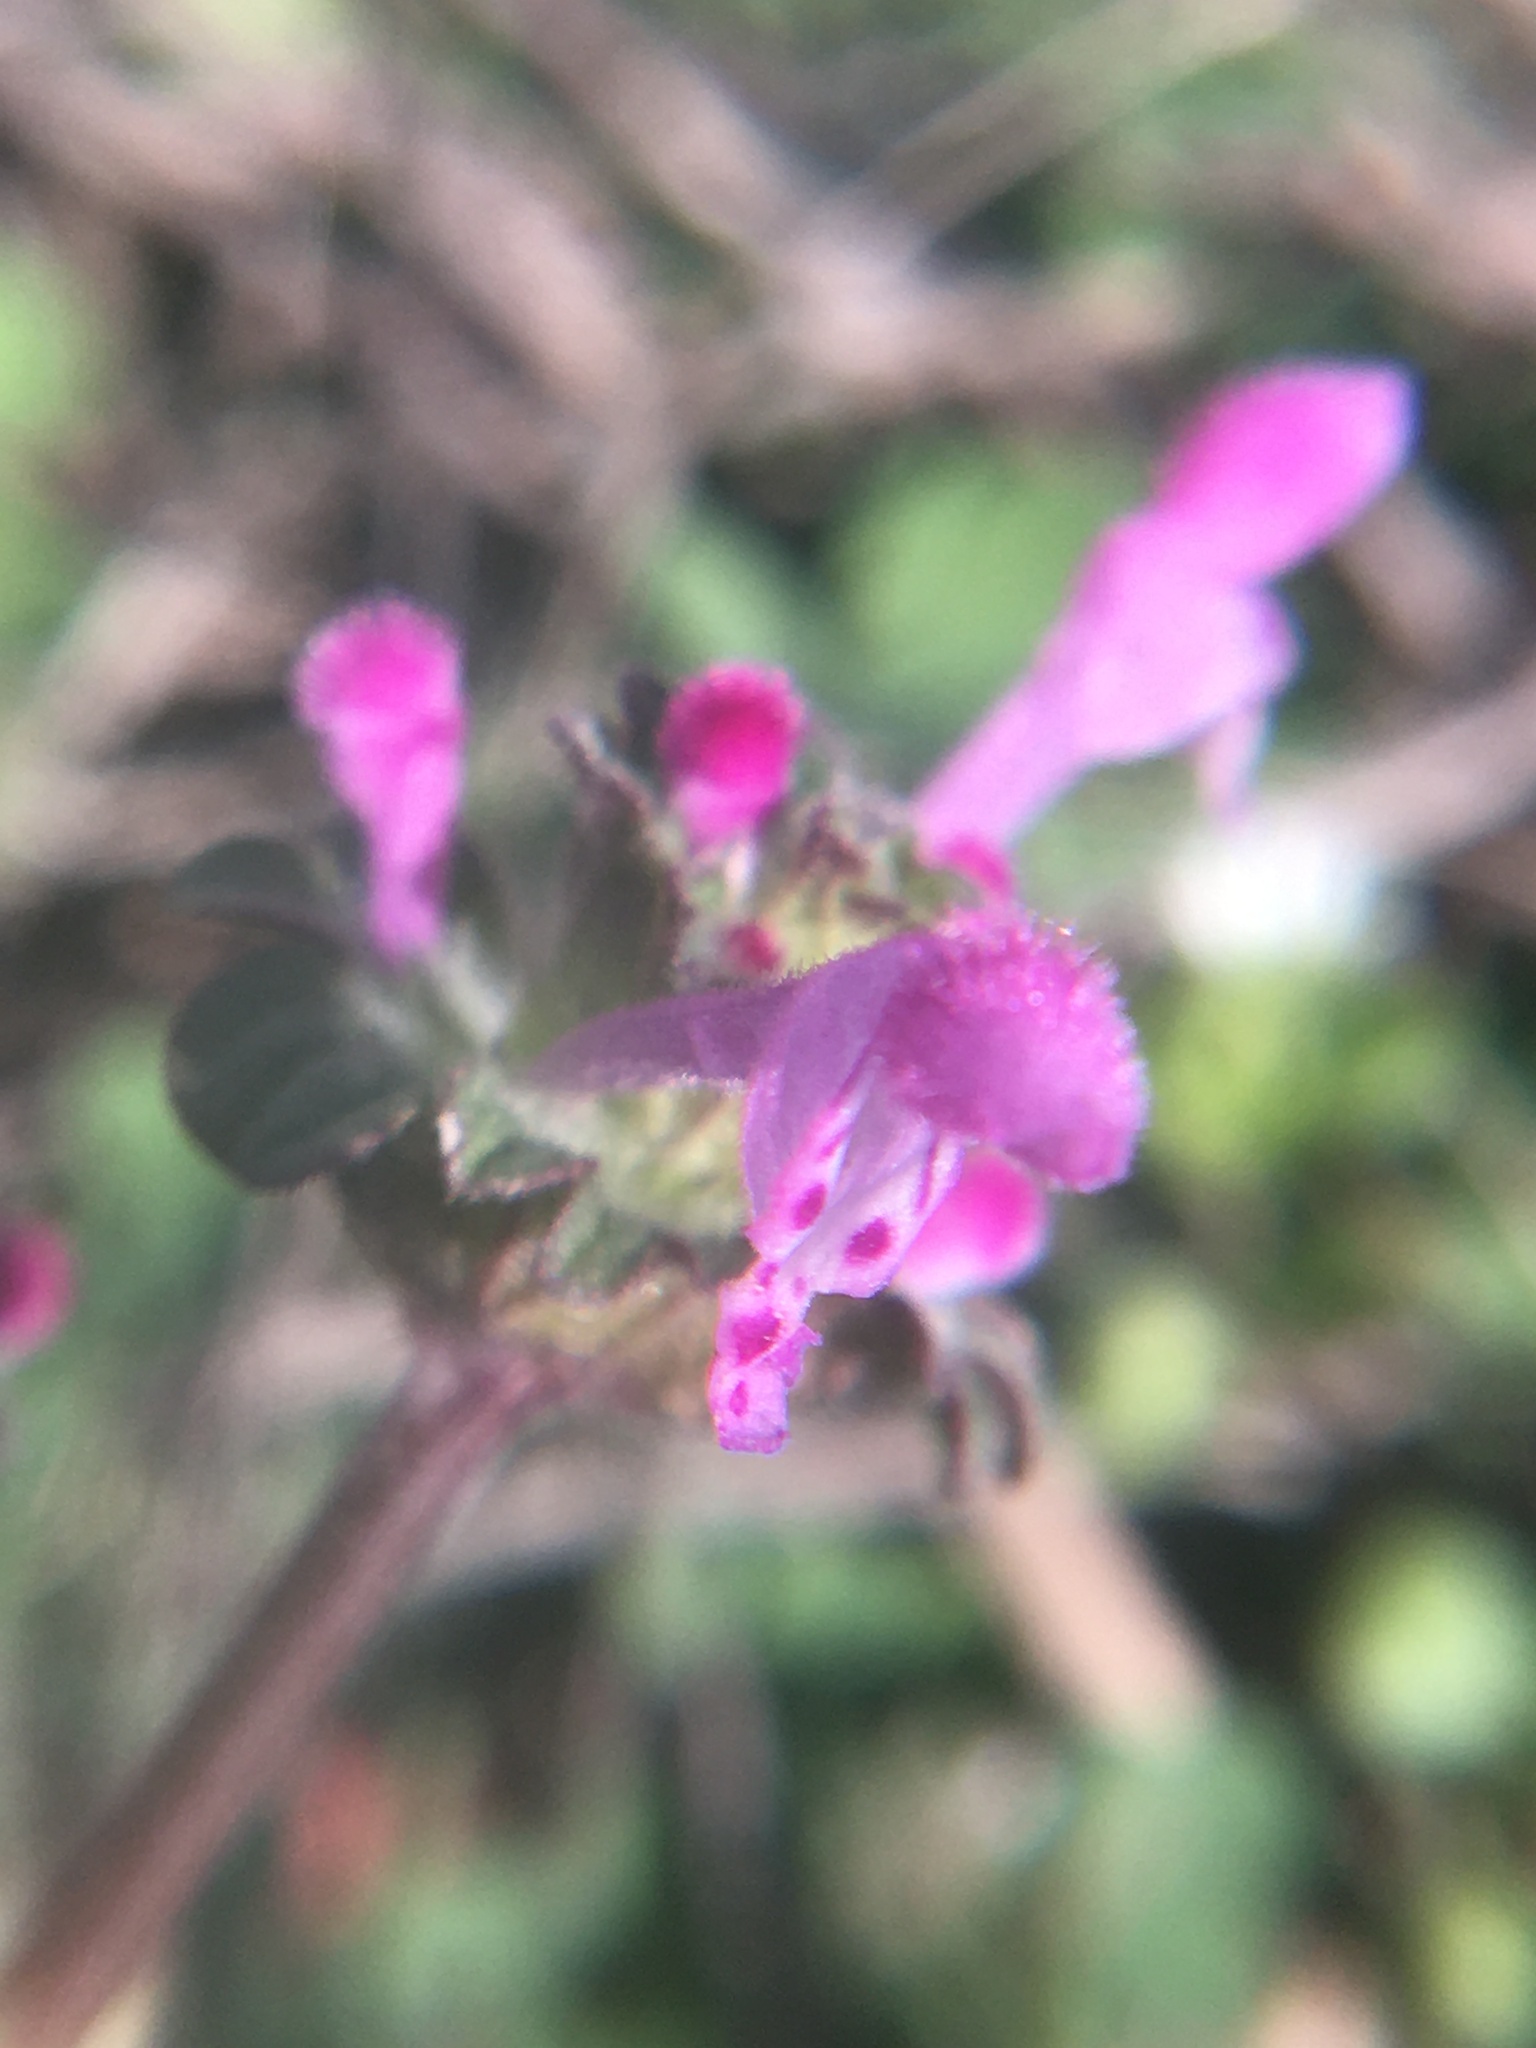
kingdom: Plantae
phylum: Tracheophyta
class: Magnoliopsida
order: Lamiales
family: Lamiaceae
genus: Lamium
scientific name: Lamium amplexicaule
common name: Henbit dead-nettle
